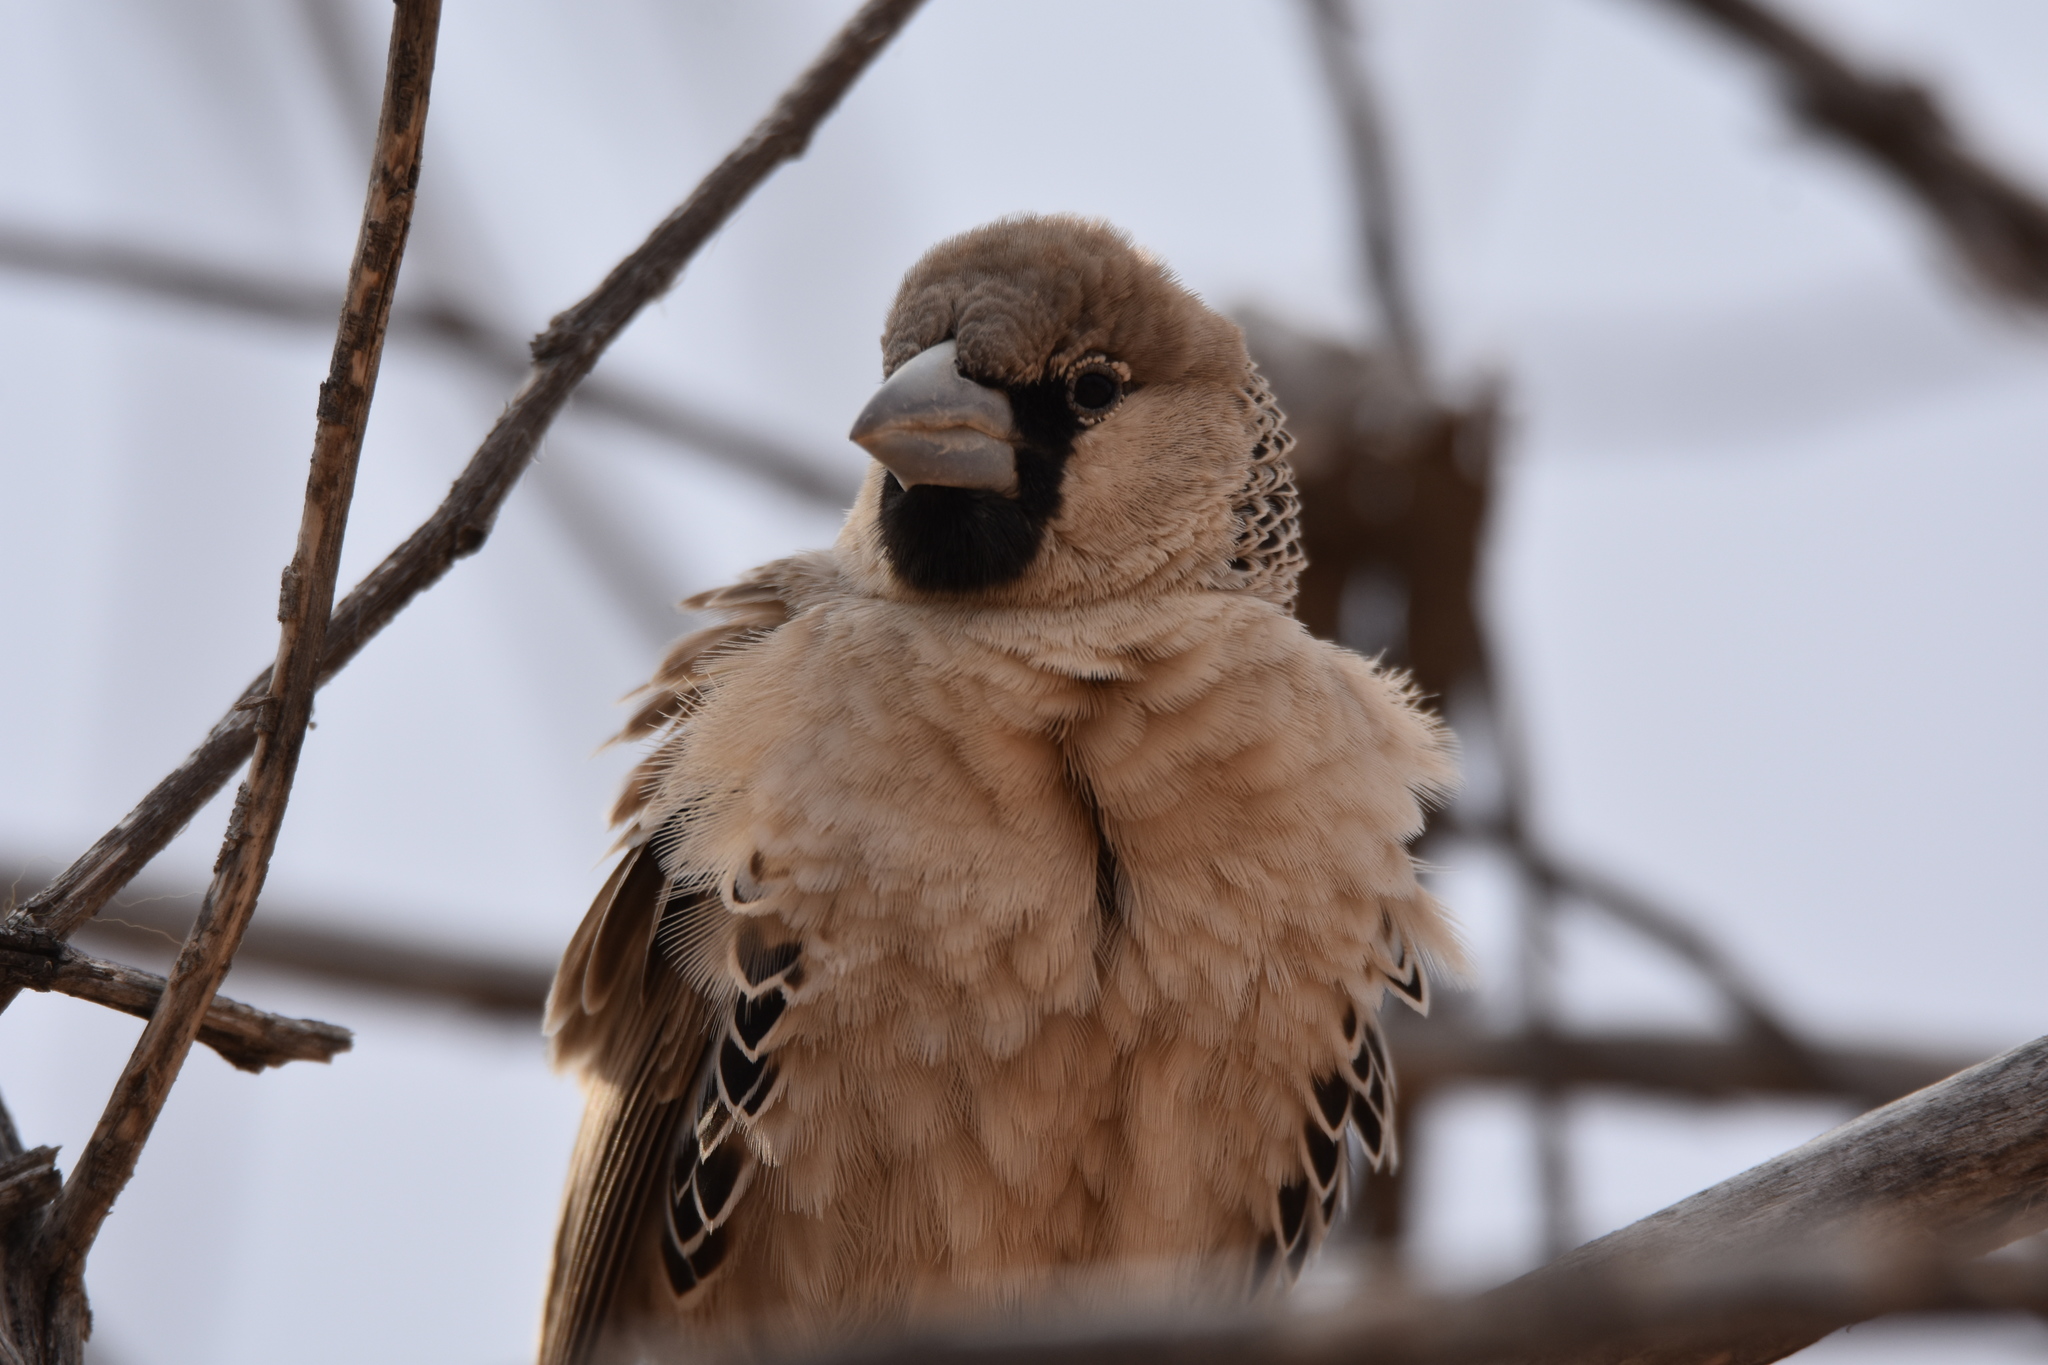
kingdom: Animalia
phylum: Chordata
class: Aves
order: Passeriformes
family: Passeridae
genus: Philetairus
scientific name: Philetairus socius
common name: Sociable weaver
